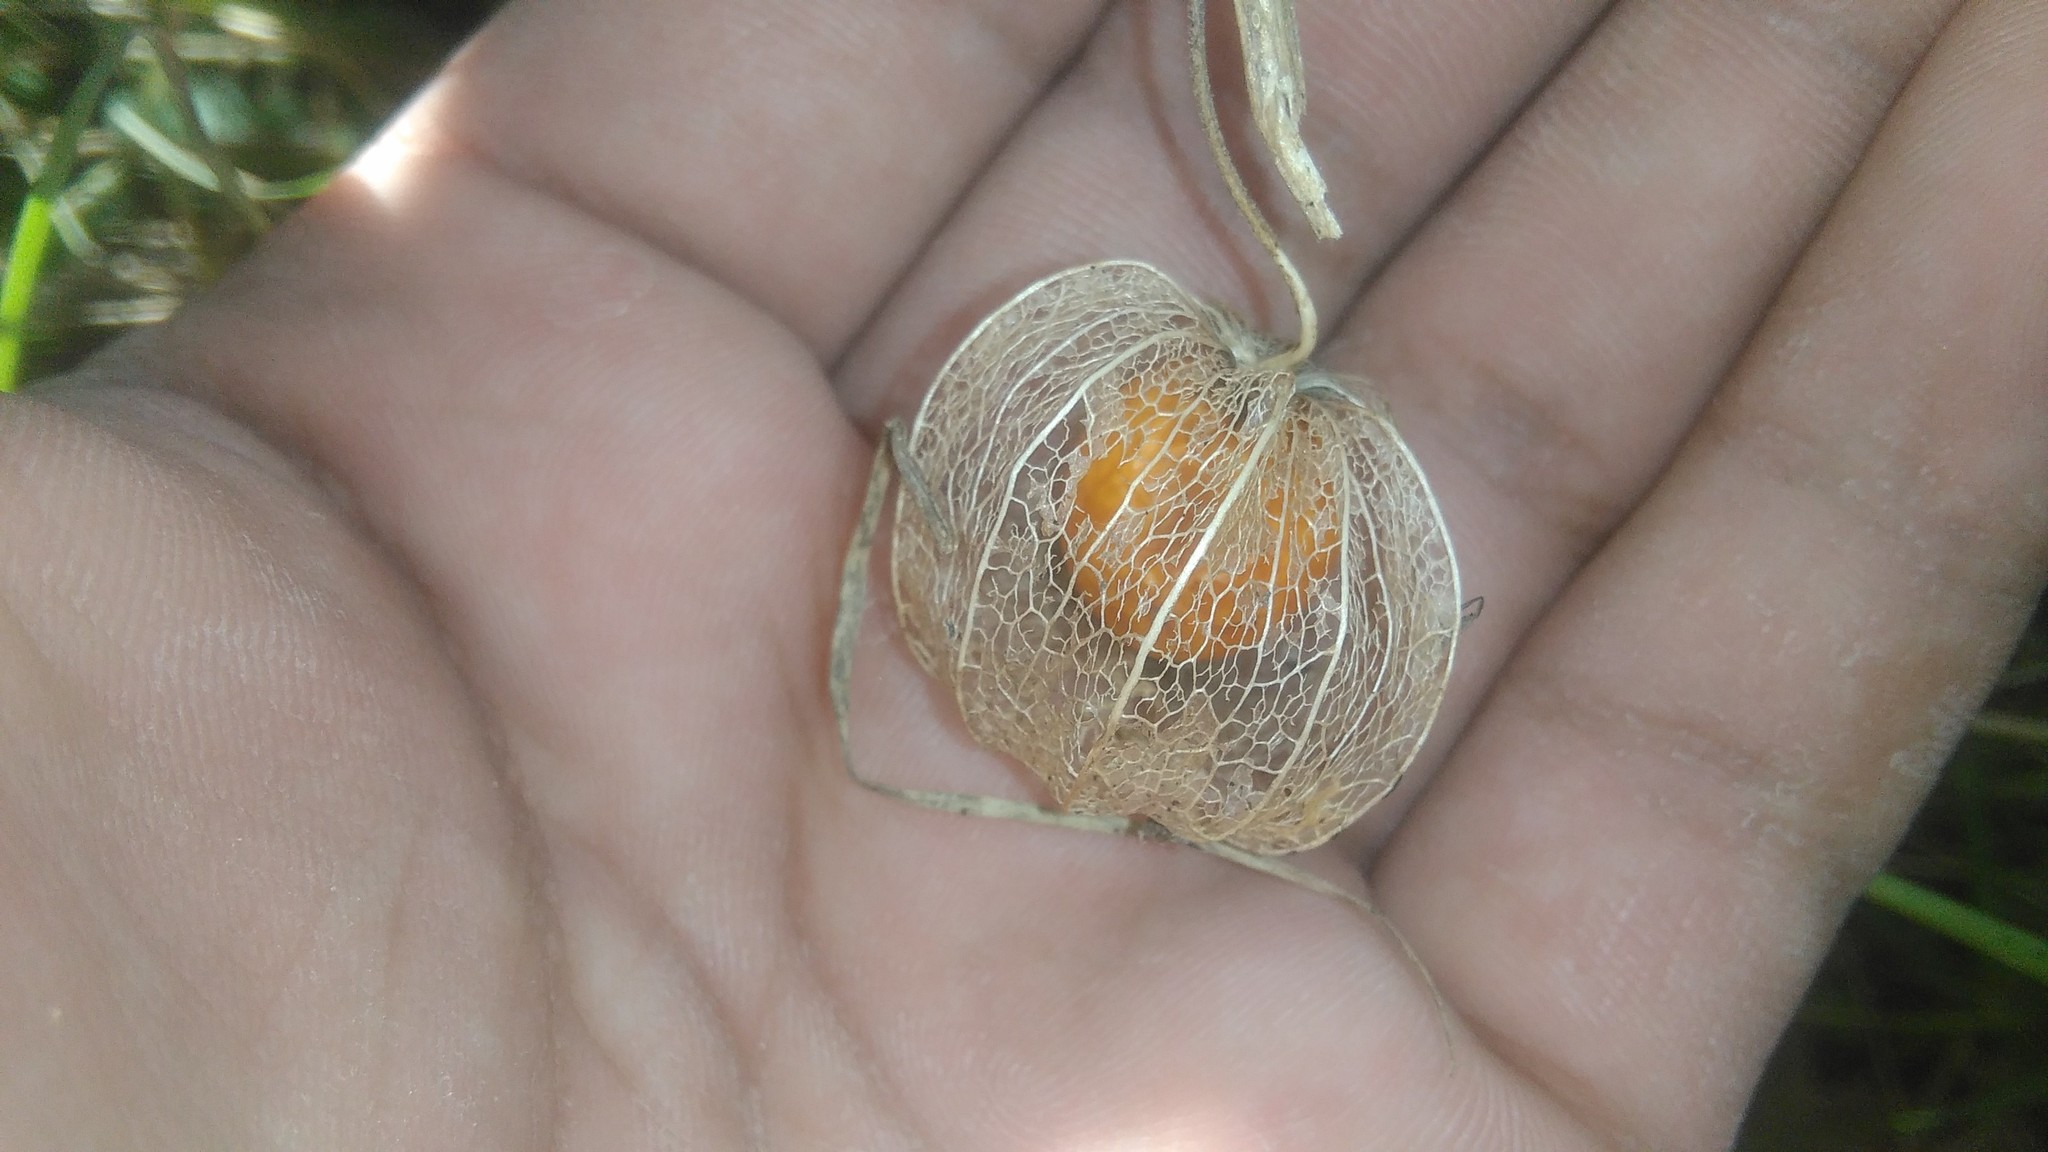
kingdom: Plantae
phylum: Tracheophyta
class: Magnoliopsida
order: Solanales
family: Solanaceae
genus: Physalis
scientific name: Physalis viscosa
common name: Stellate ground-cherry
